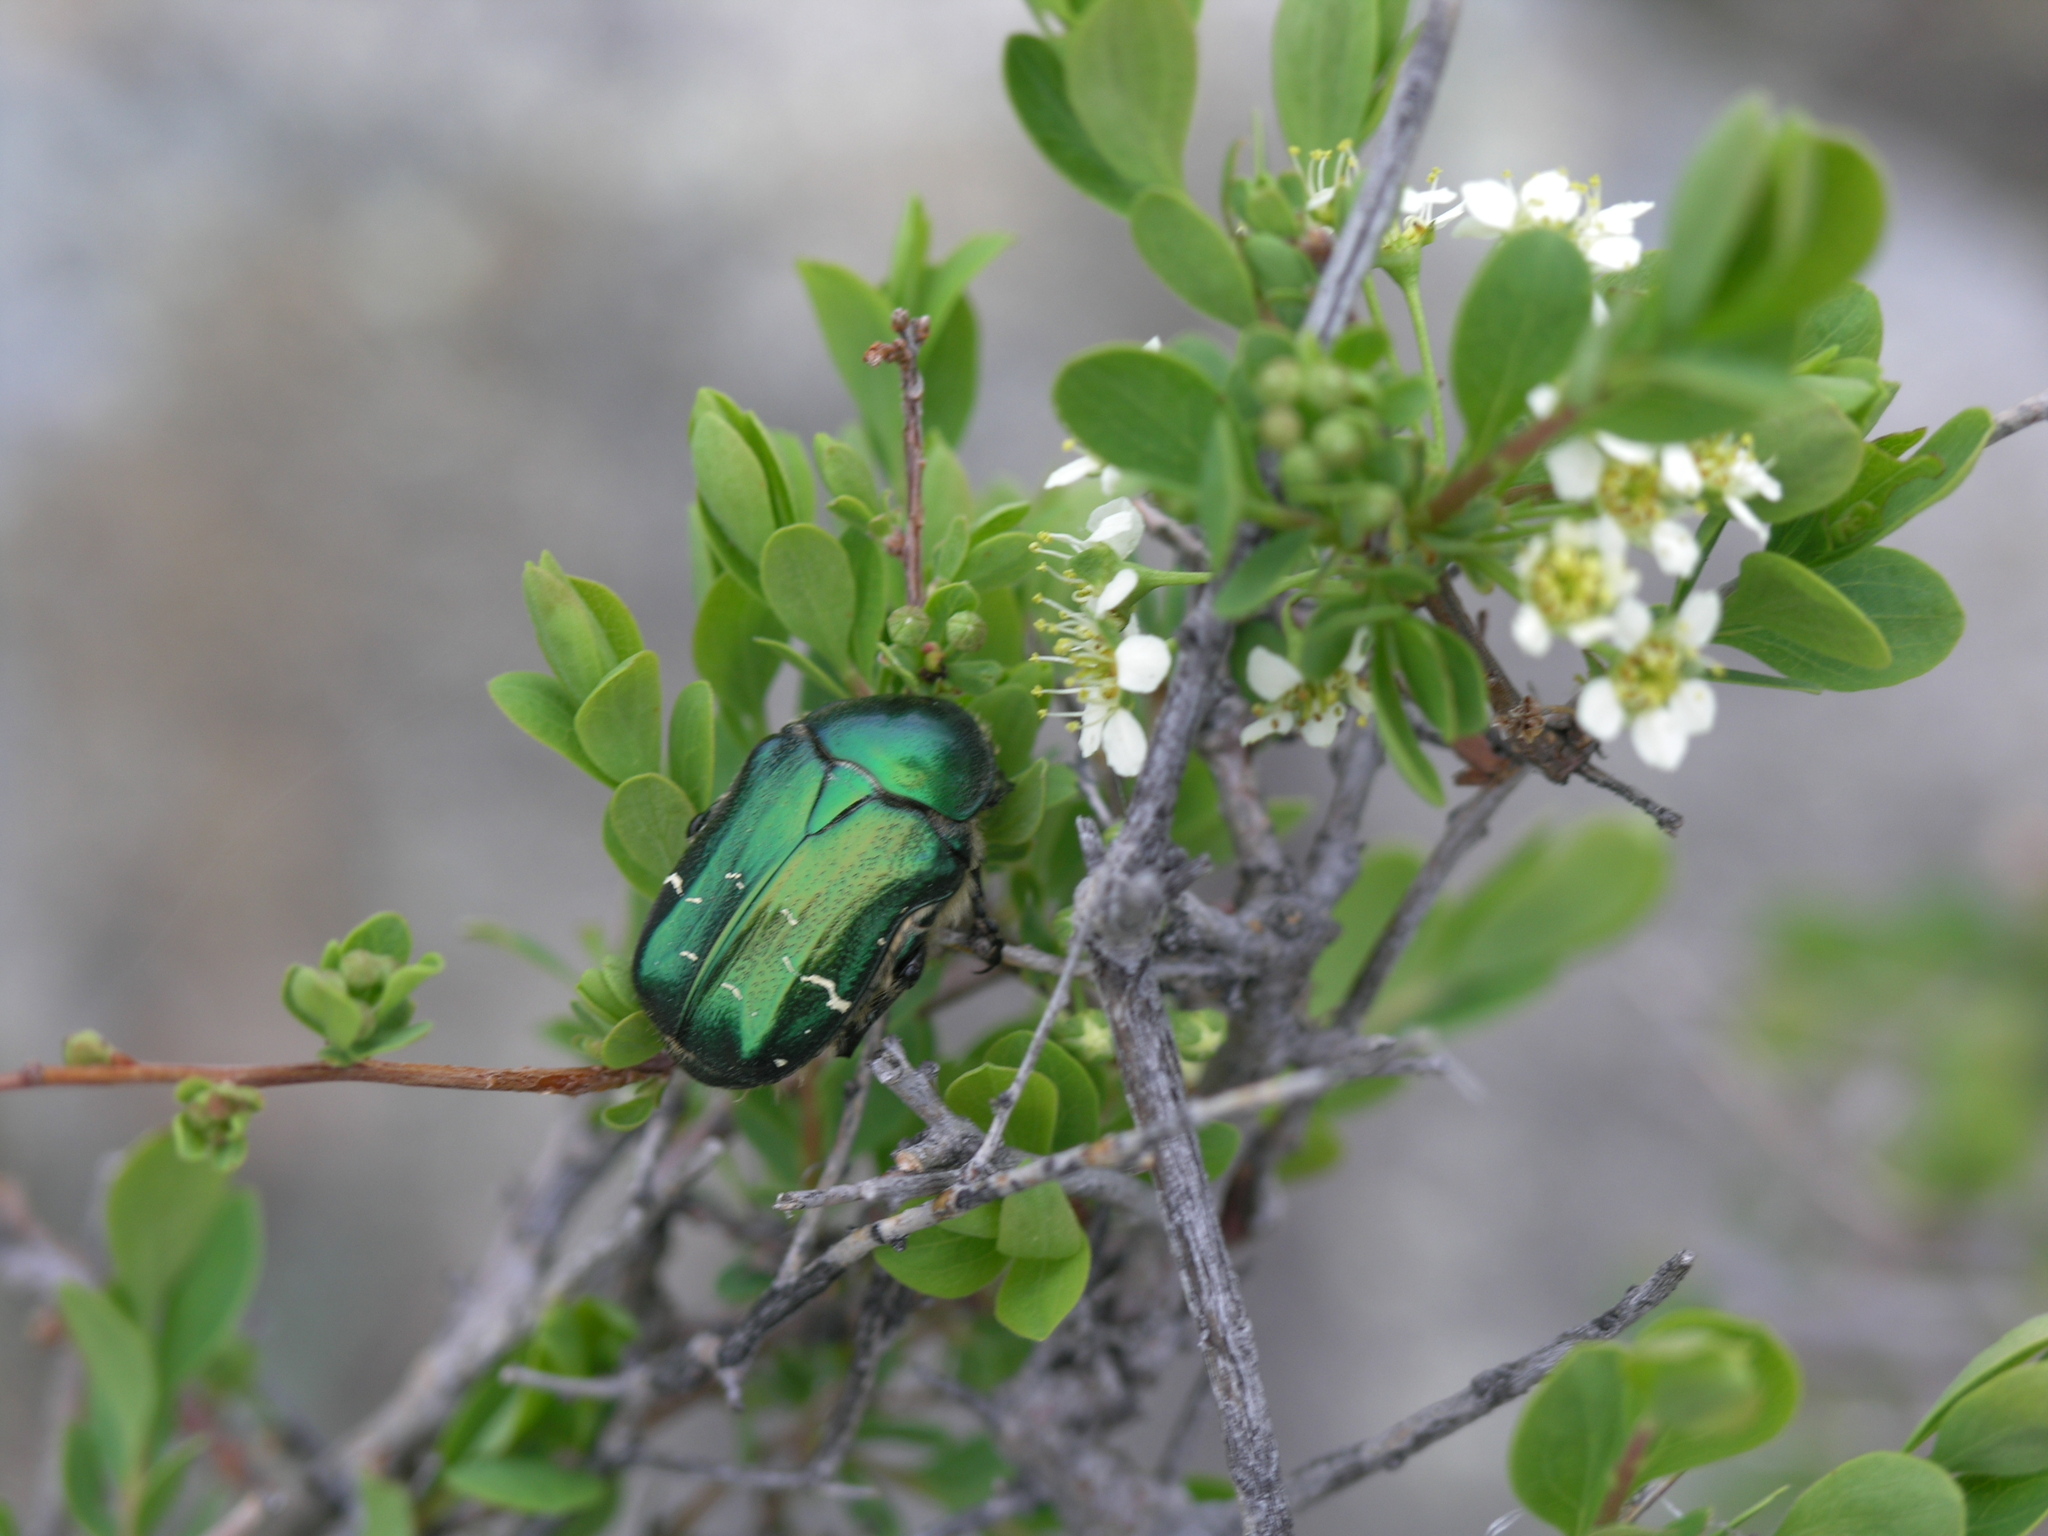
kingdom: Plantae
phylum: Tracheophyta
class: Magnoliopsida
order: Rosales
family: Rosaceae
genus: Spiraea
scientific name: Spiraea hypericifolia
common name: Iberian spirea
